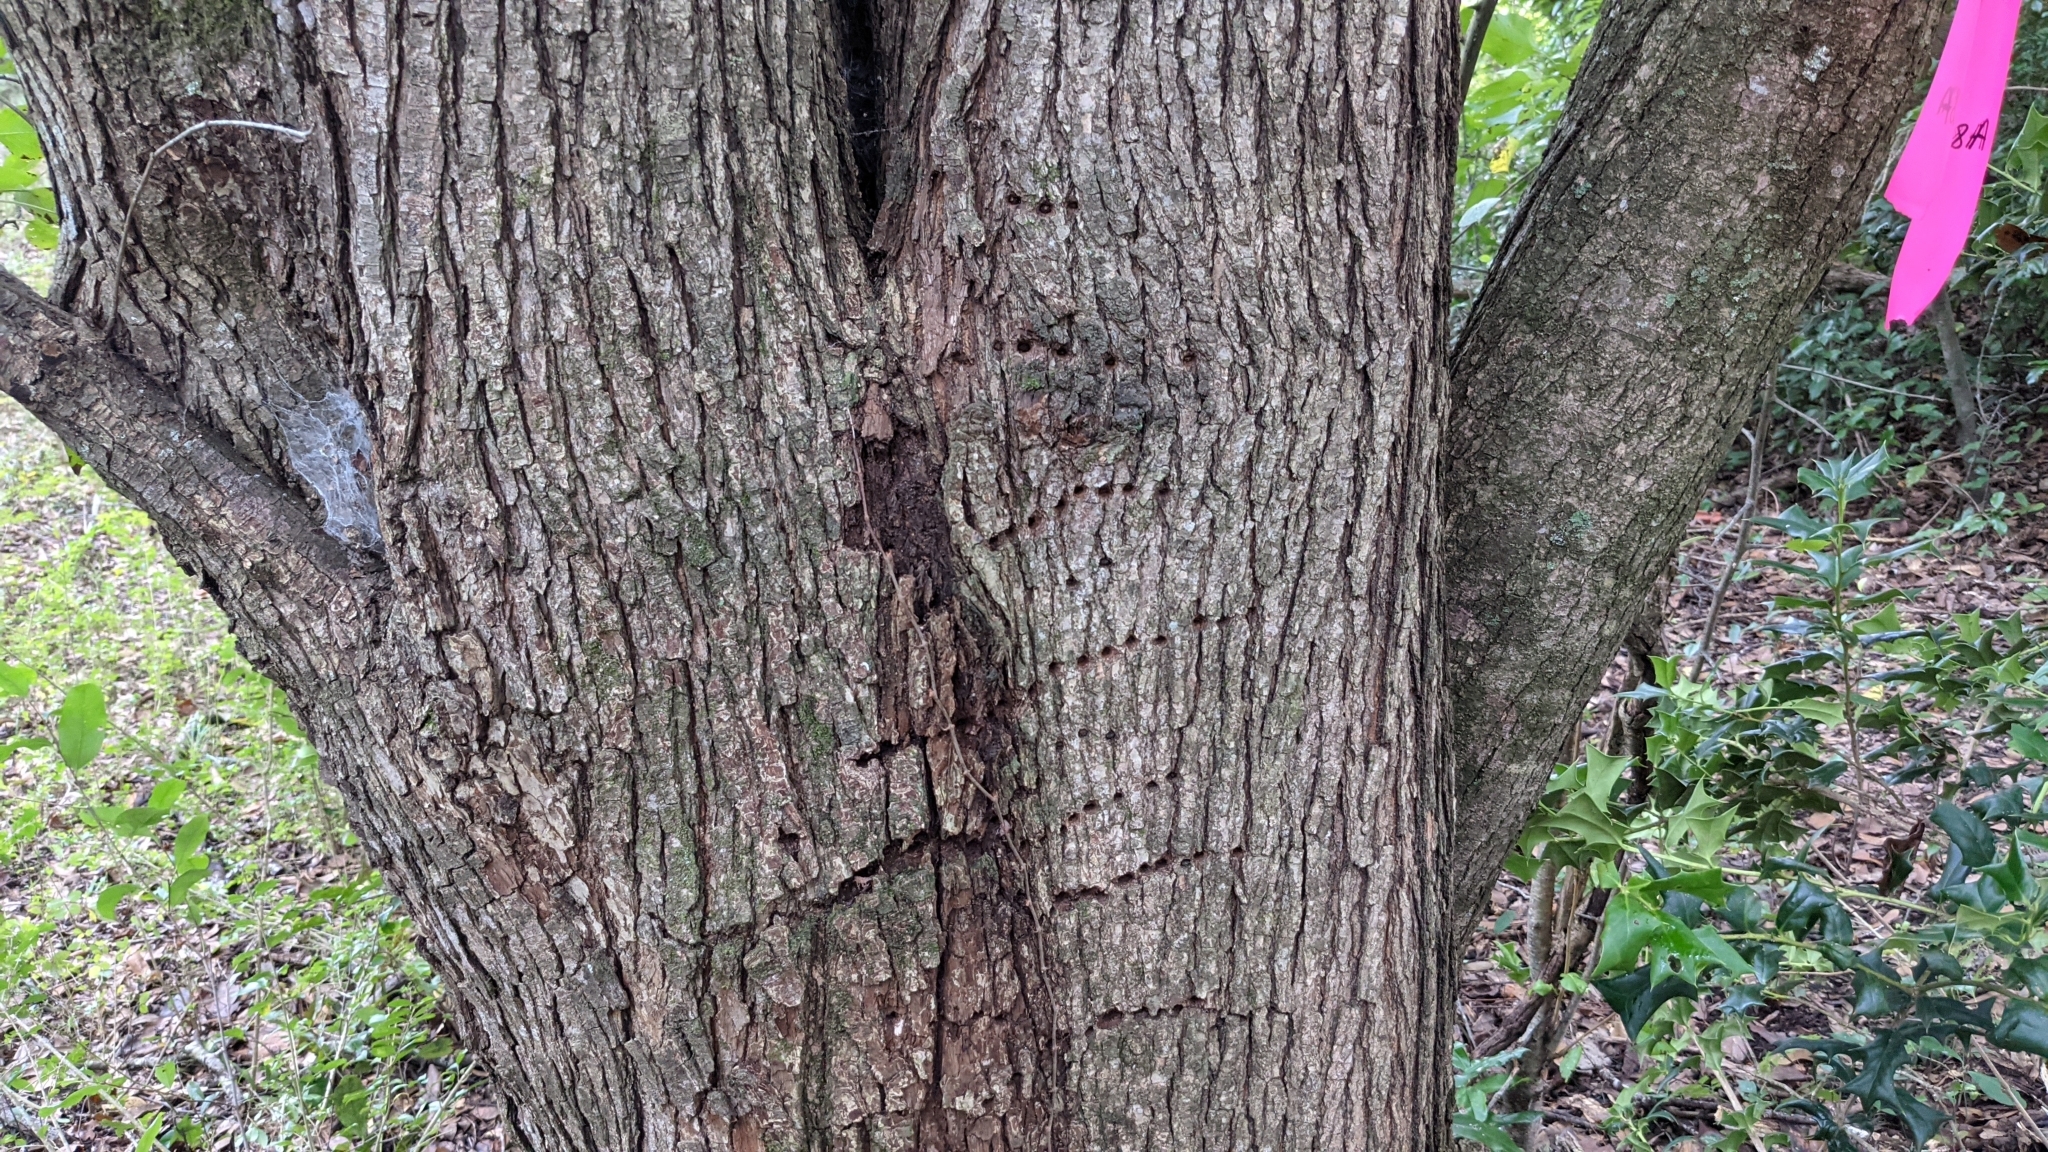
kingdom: Animalia
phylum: Chordata
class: Aves
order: Piciformes
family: Picidae
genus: Sphyrapicus
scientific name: Sphyrapicus varius
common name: Yellow-bellied sapsucker
